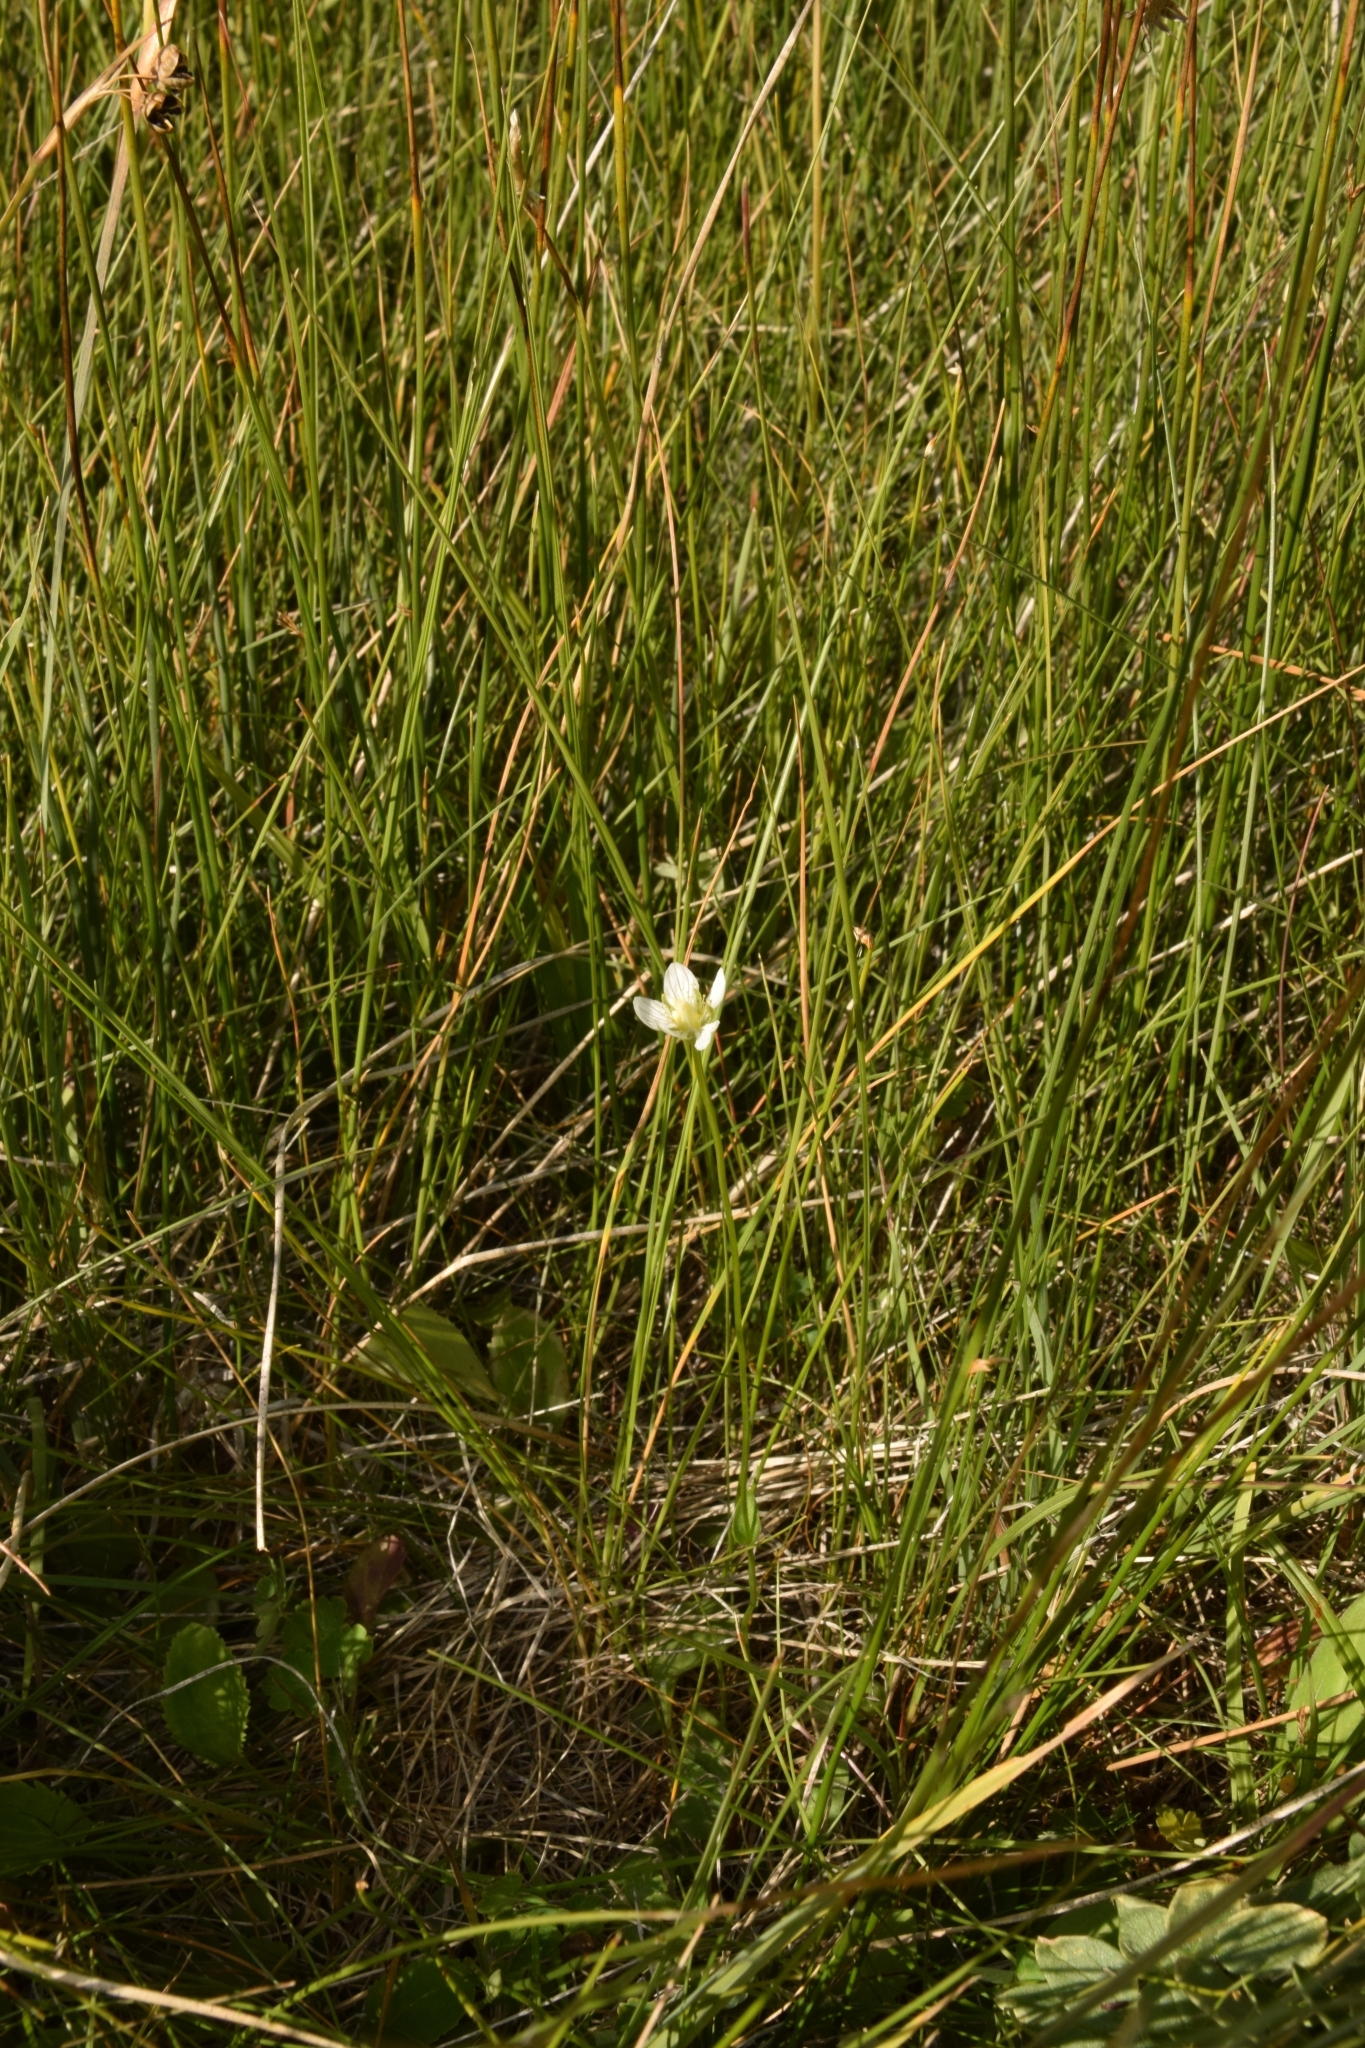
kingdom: Plantae
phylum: Tracheophyta
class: Magnoliopsida
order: Celastrales
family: Parnassiaceae
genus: Parnassia
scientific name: Parnassia parviflora
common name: Small-flowered grass-of-parnassus
